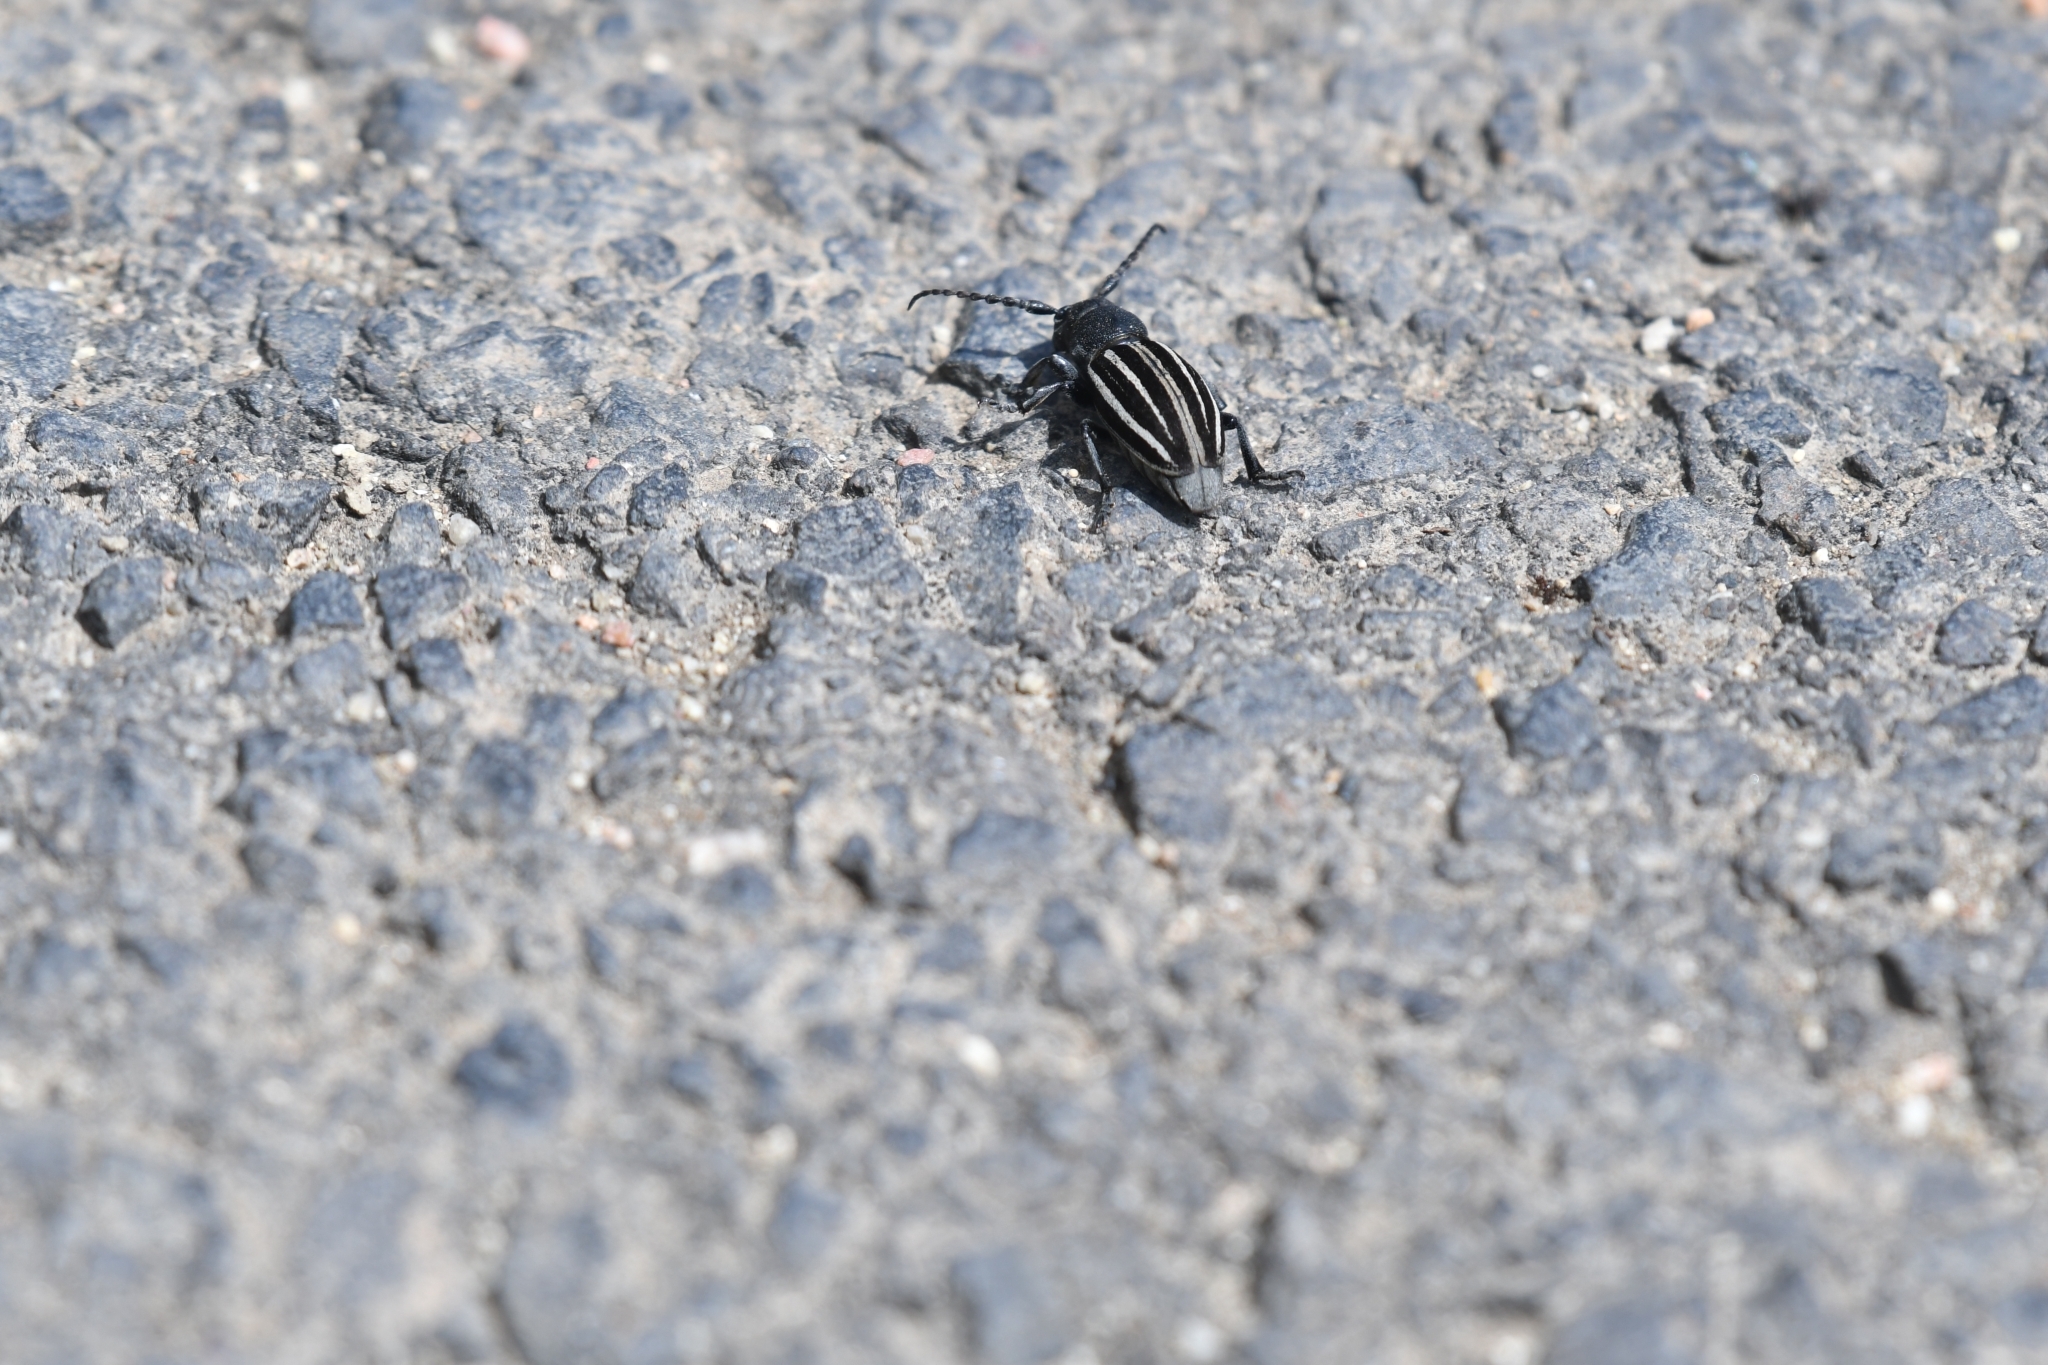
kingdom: Animalia
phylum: Arthropoda
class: Insecta
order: Coleoptera
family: Cerambycidae
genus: Iberodorcadion
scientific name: Iberodorcadion fuliginator
